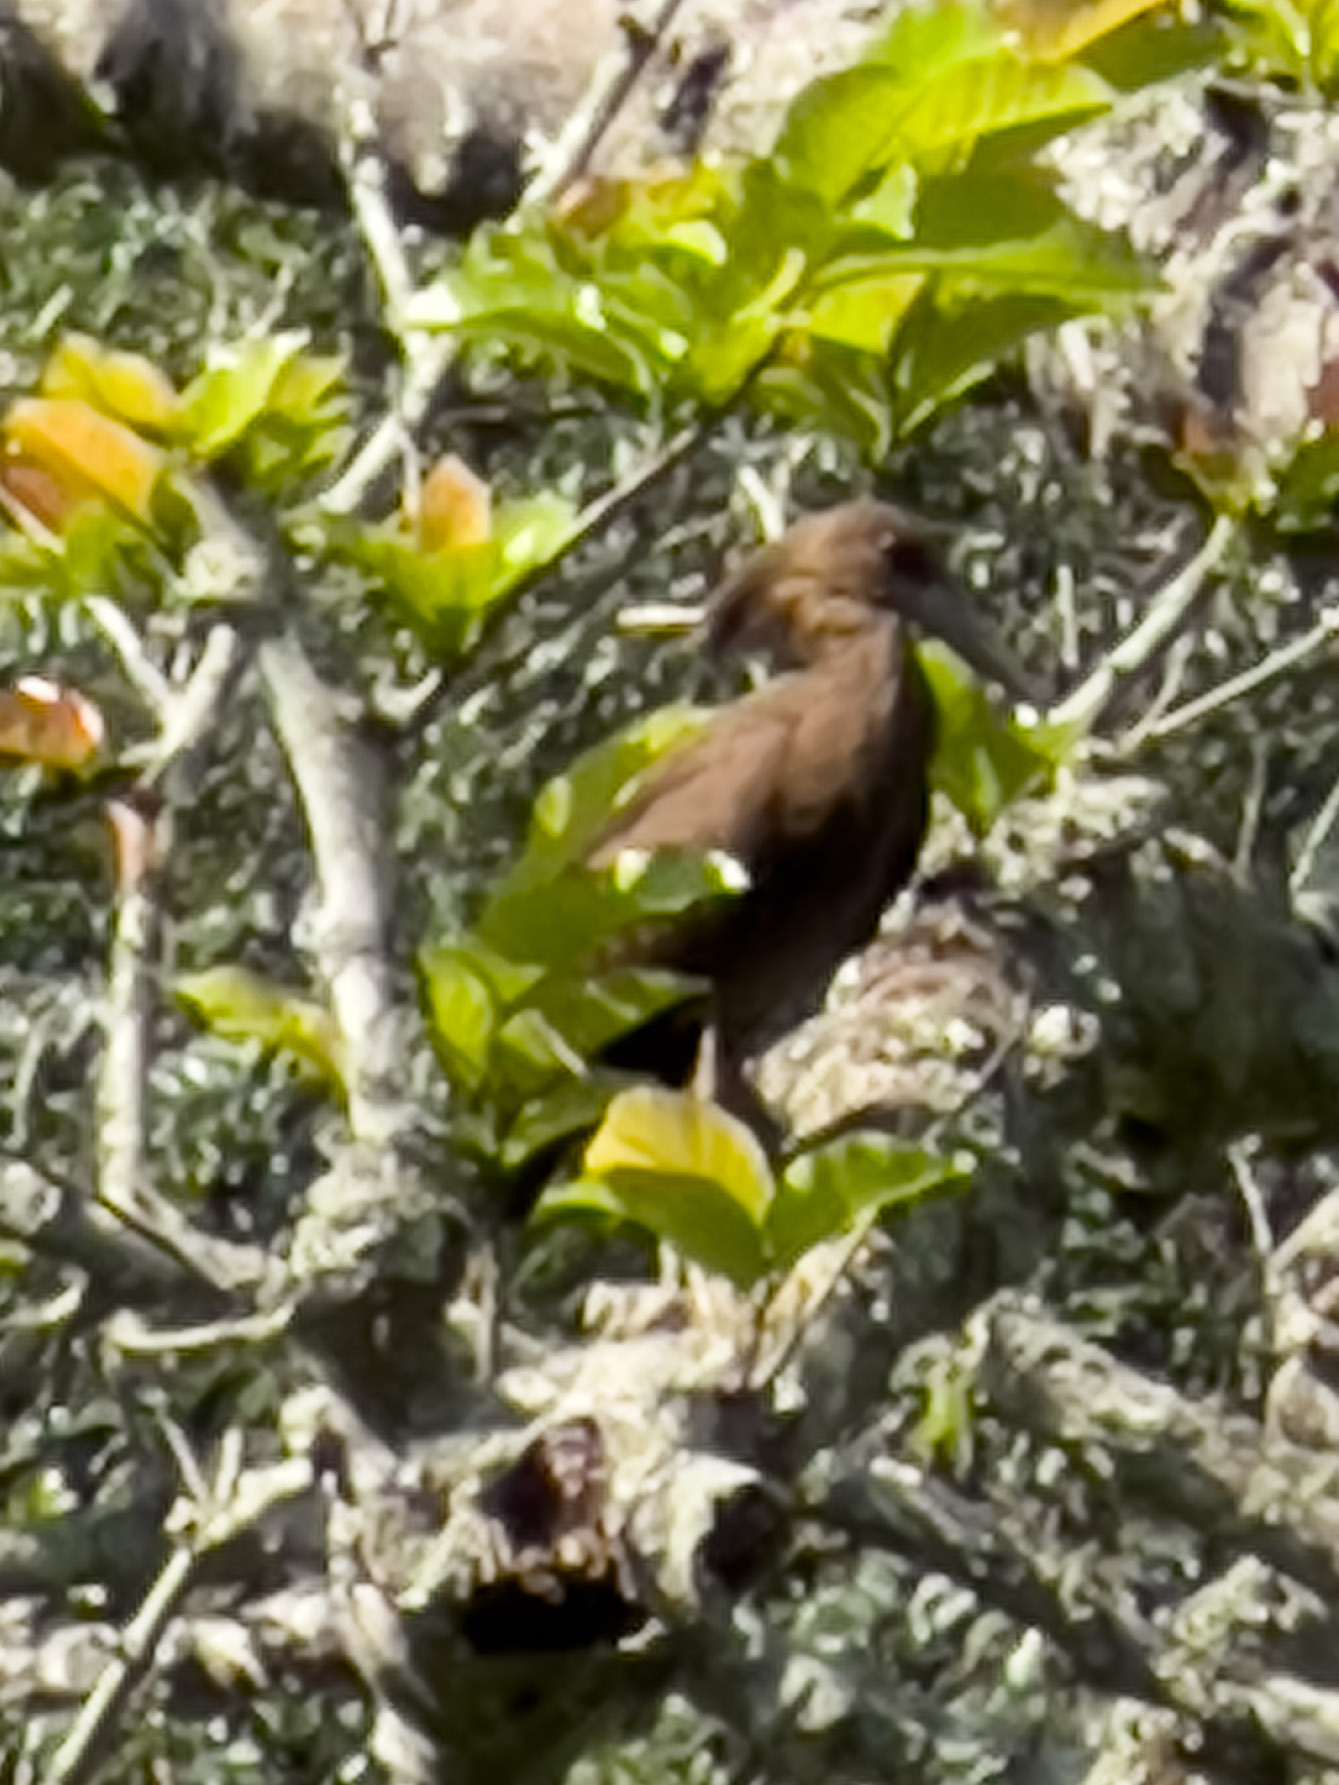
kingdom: Animalia
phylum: Chordata
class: Aves
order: Pelecaniformes
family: Scopidae
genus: Scopus
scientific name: Scopus umbretta
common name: Hamerkop
